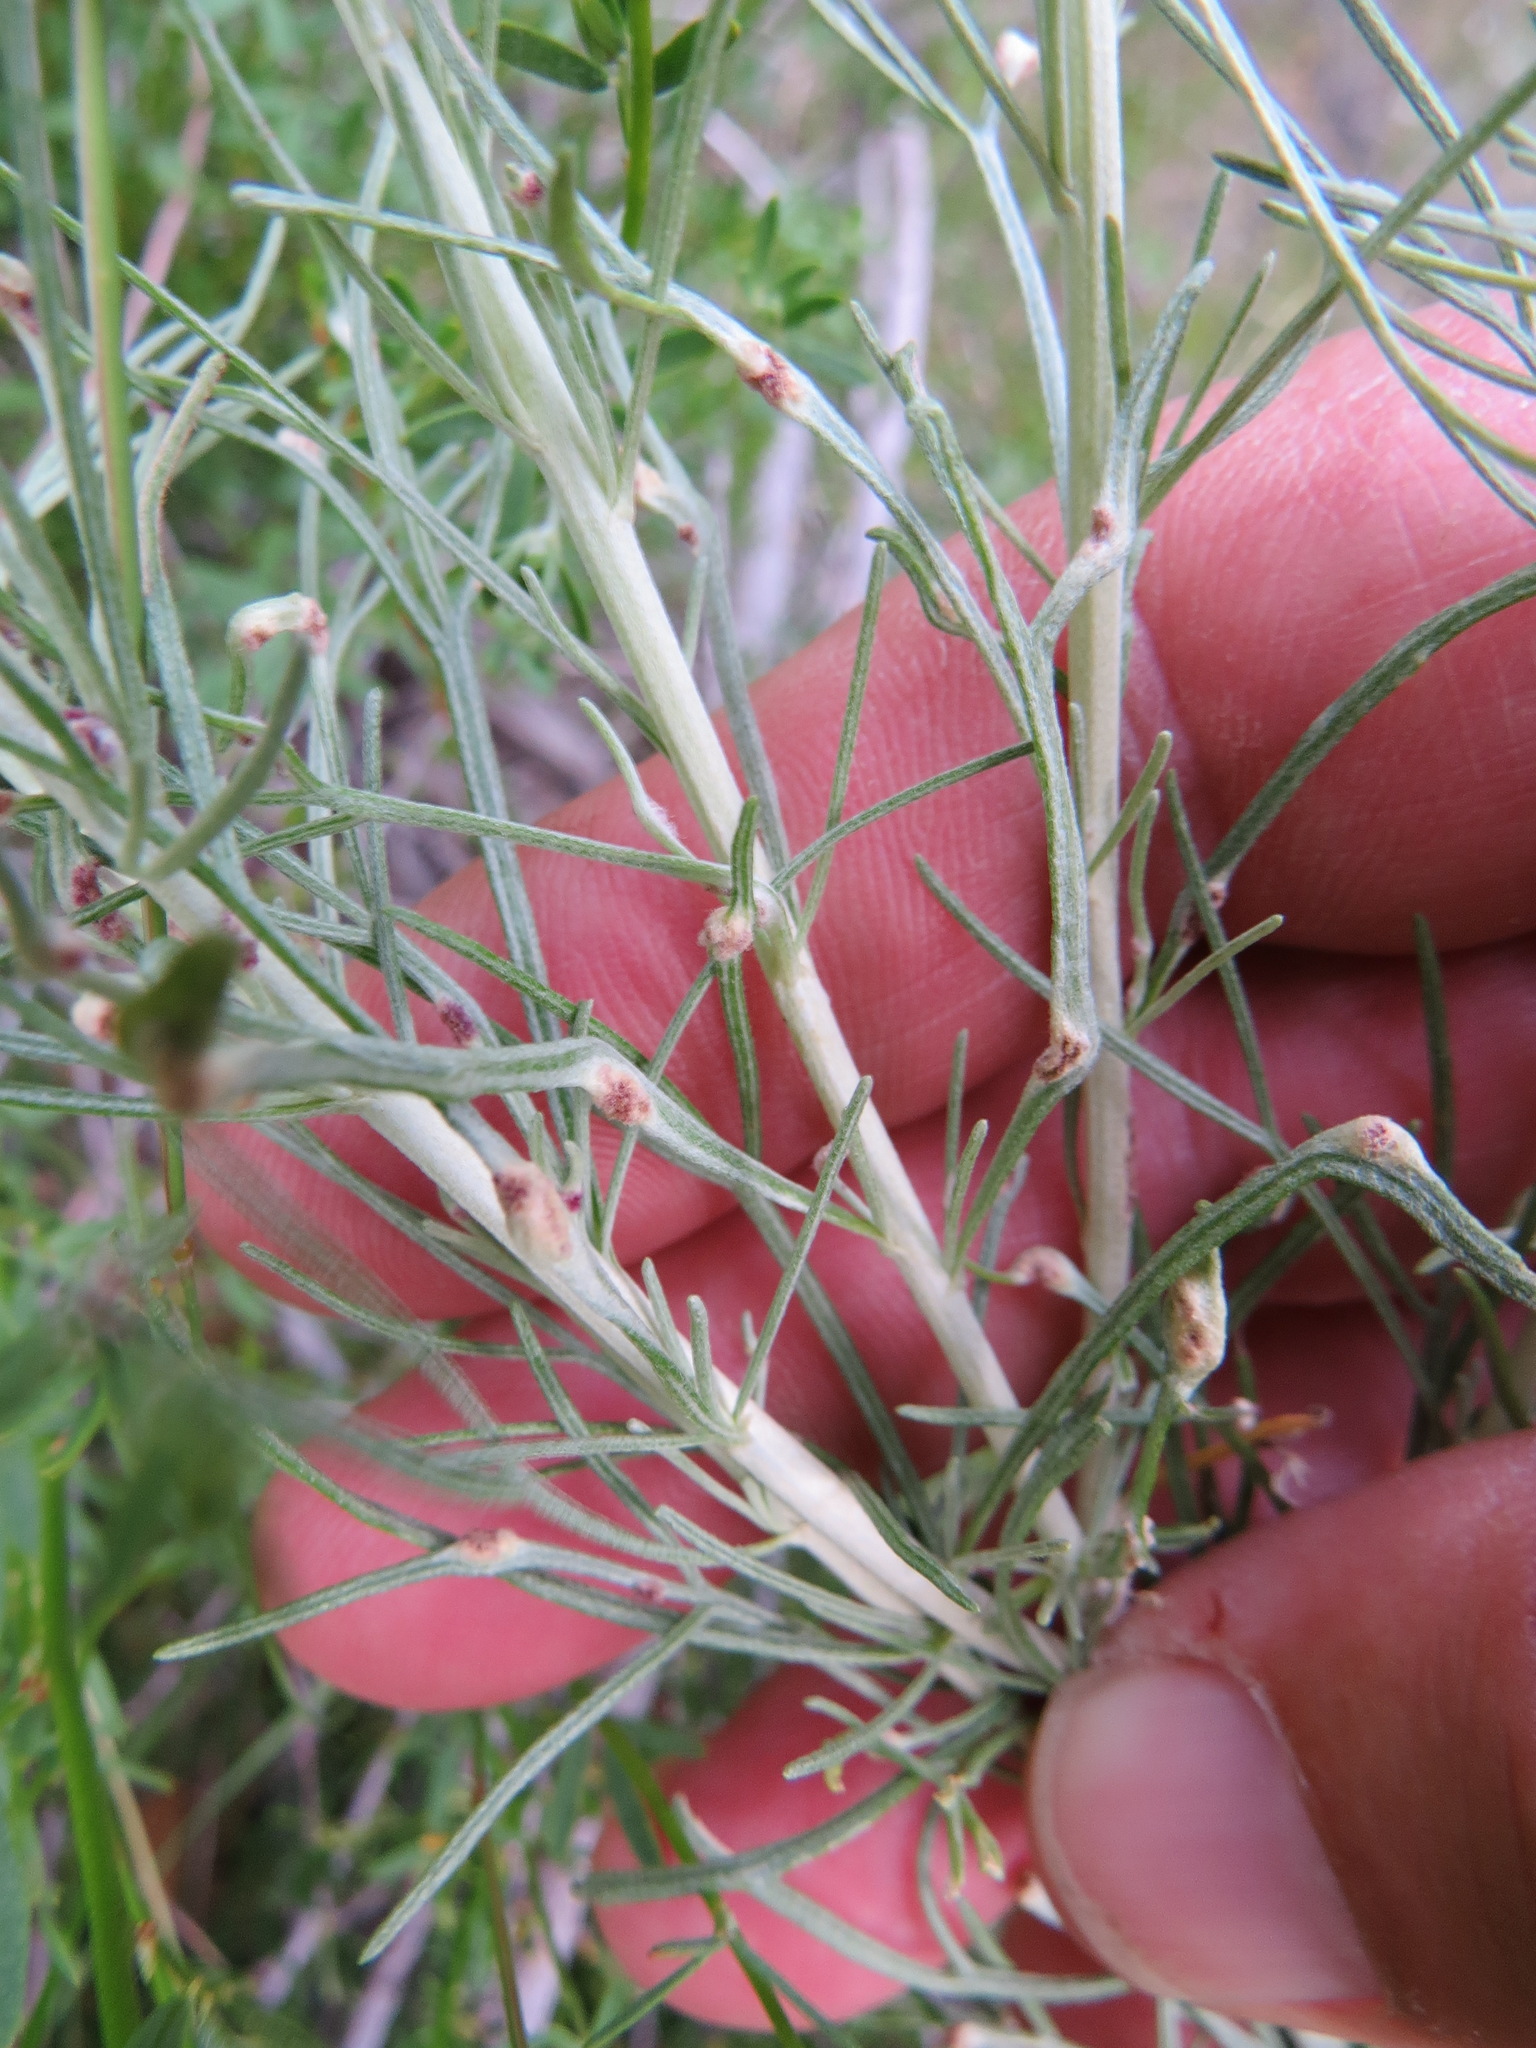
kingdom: Animalia
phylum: Arthropoda
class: Arachnida
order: Trombidiformes
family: Eriophyidae
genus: Aceria
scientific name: Aceria
